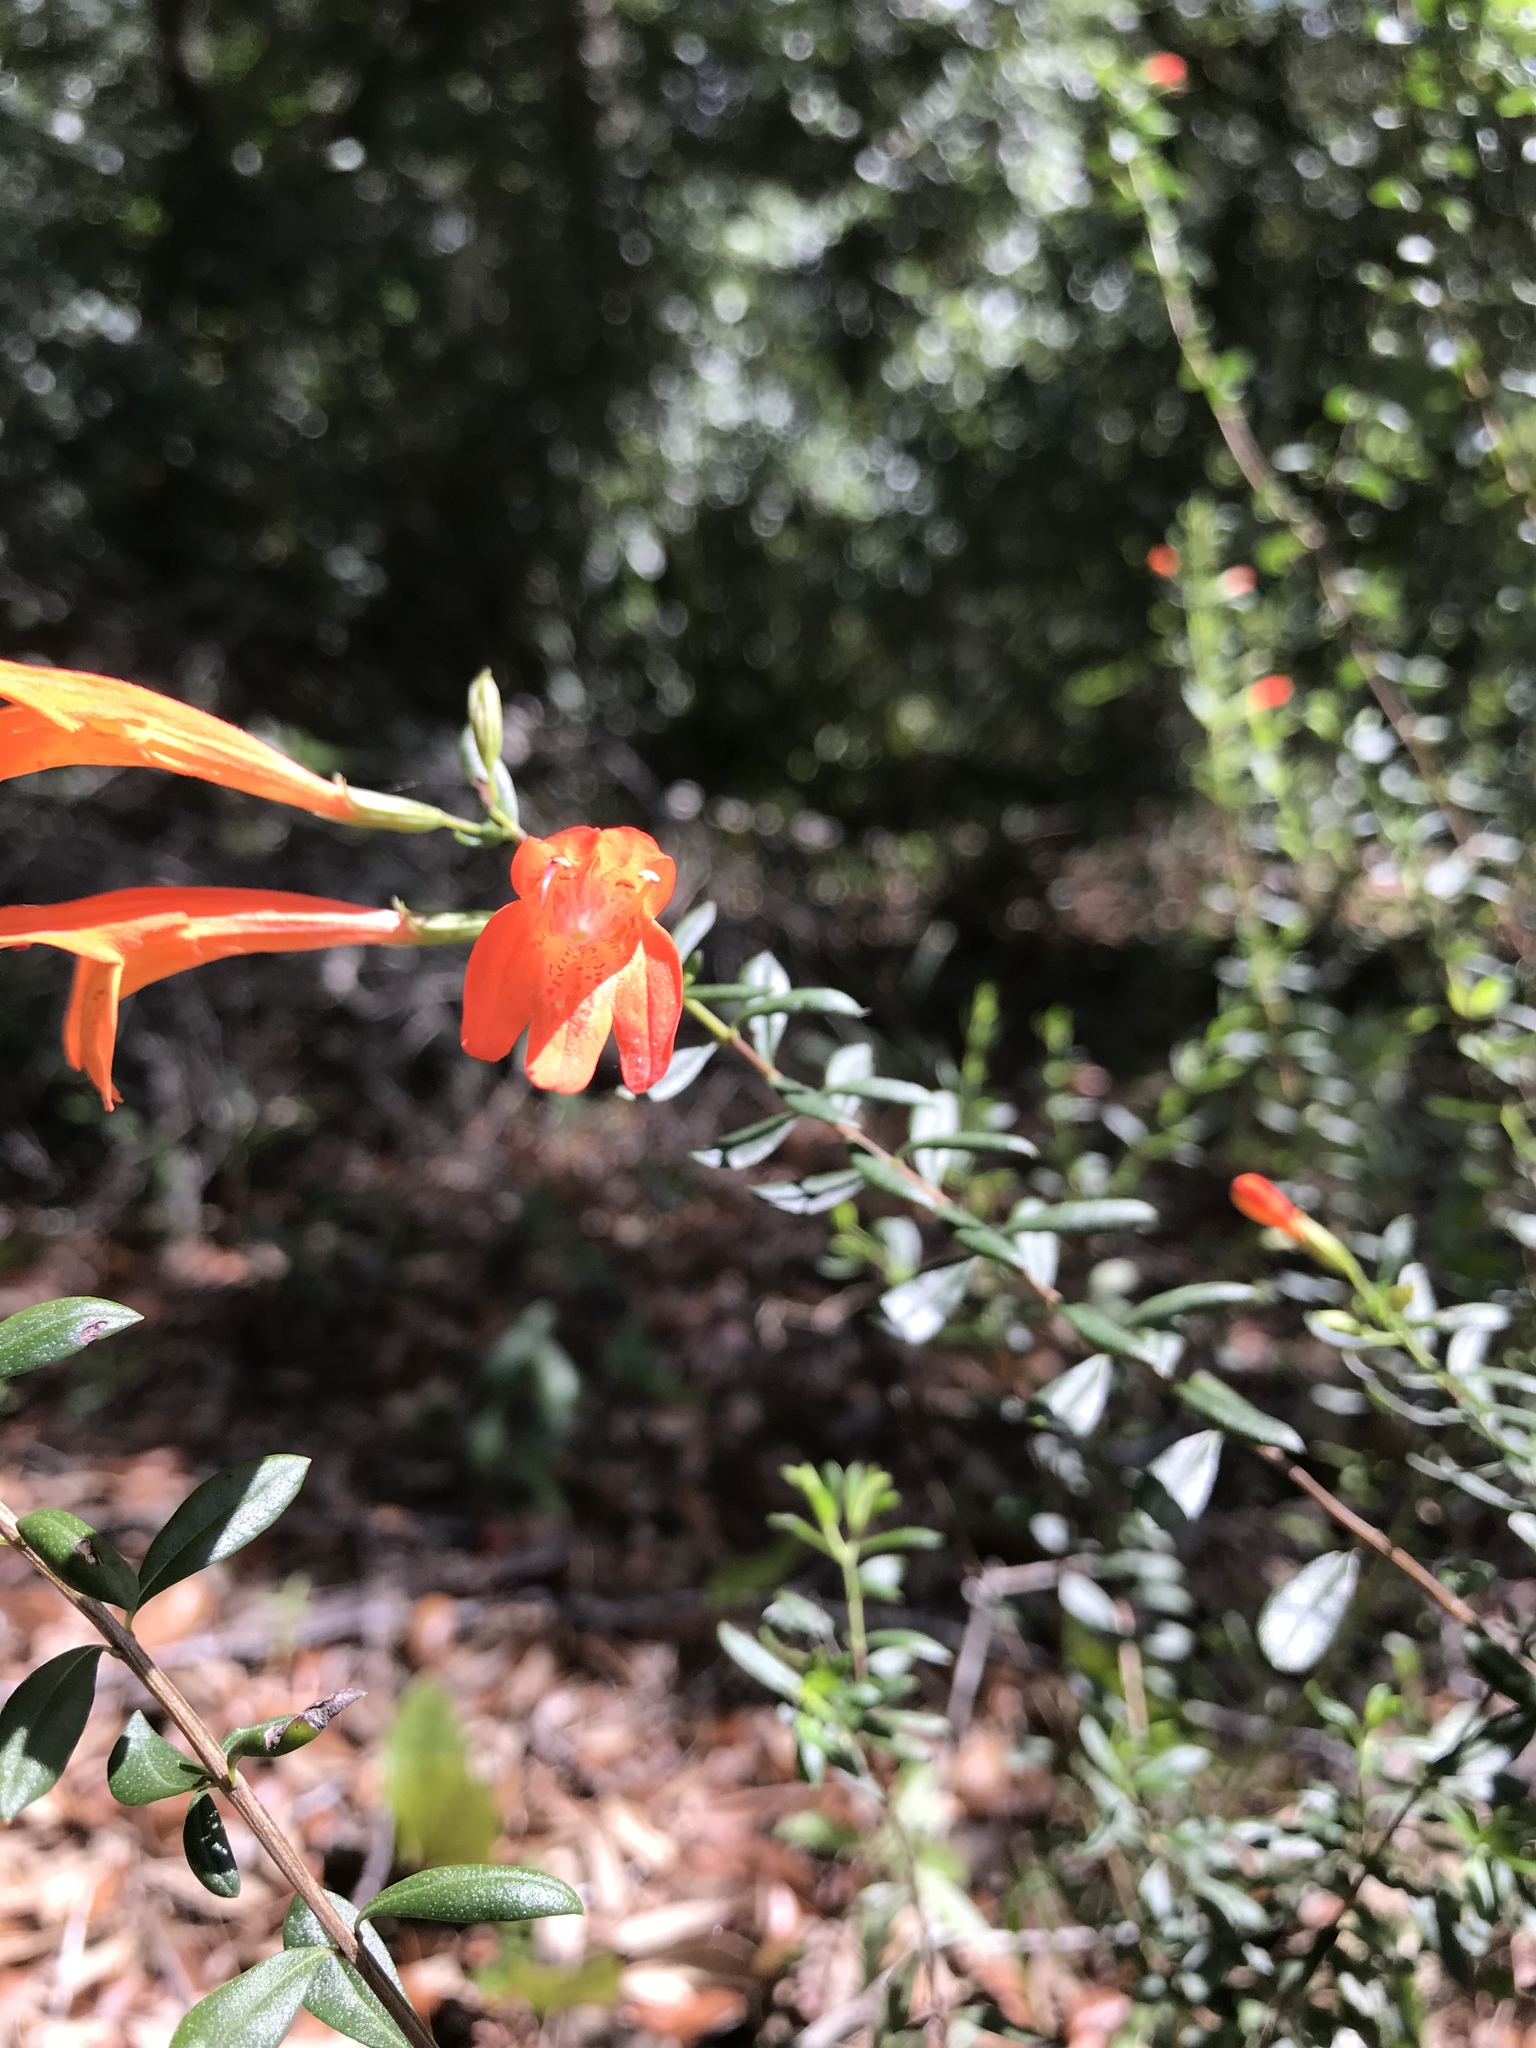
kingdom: Plantae
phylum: Tracheophyta
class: Magnoliopsida
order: Lamiales
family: Lamiaceae
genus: Clinopodium
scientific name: Clinopodium coccineum
